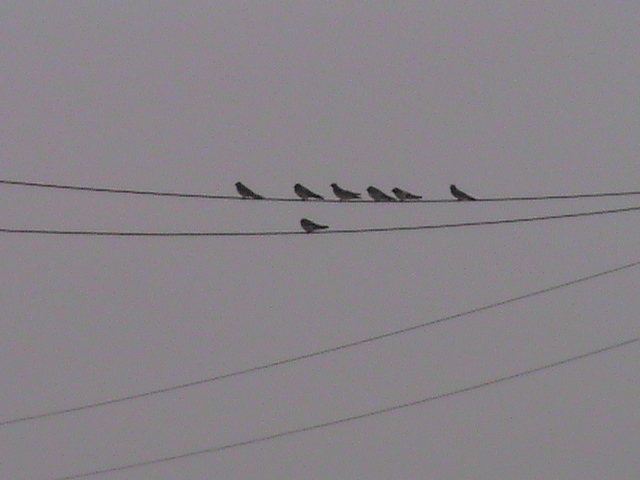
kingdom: Animalia
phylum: Chordata
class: Aves
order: Passeriformes
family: Hirundinidae
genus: Hirundo
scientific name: Hirundo rustica
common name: Barn swallow
